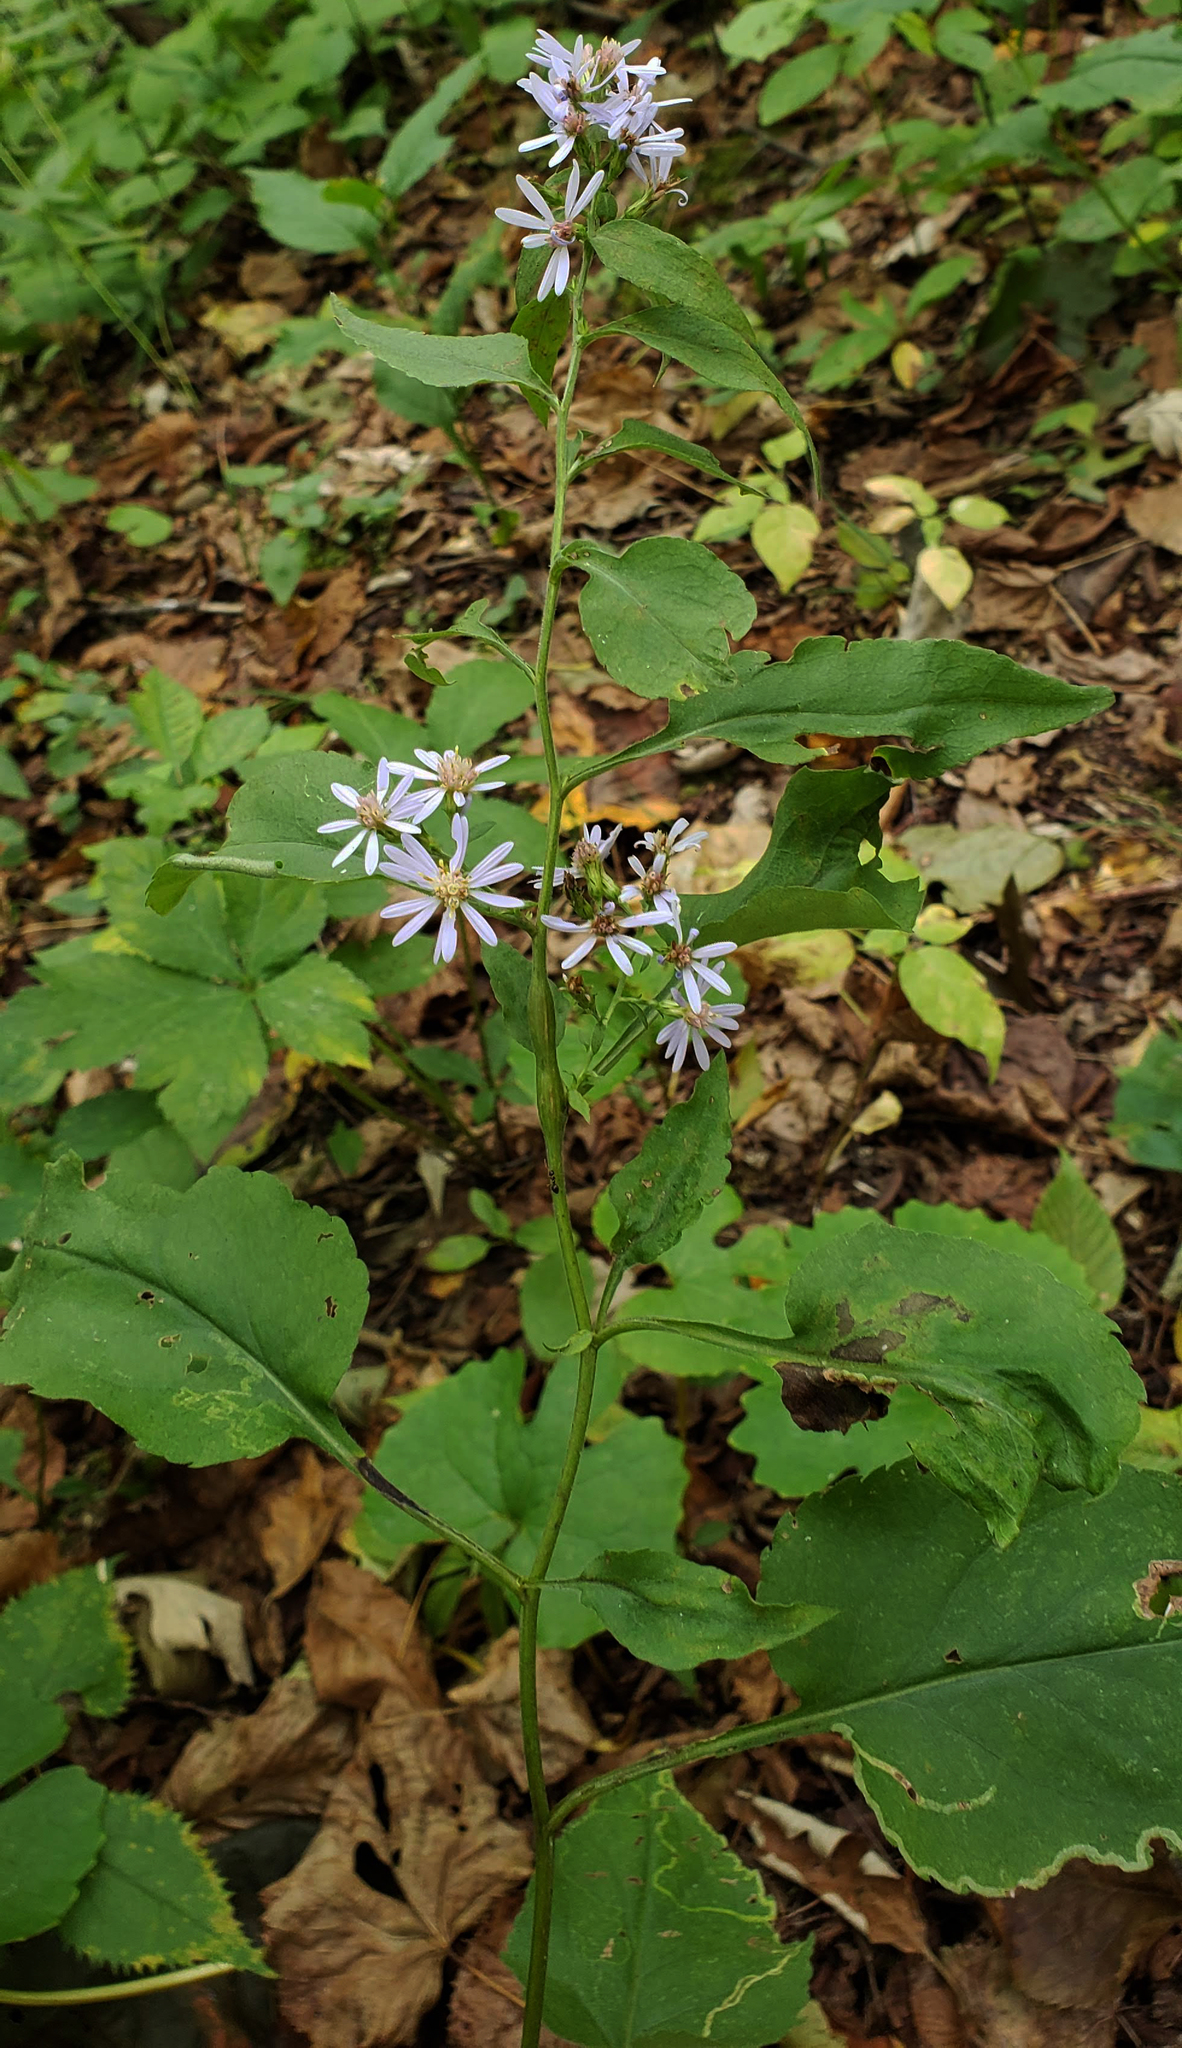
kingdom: Plantae
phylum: Tracheophyta
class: Magnoliopsida
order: Asterales
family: Asteraceae
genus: Symphyotrichum
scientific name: Symphyotrichum drummondii
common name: Drummond's aster
